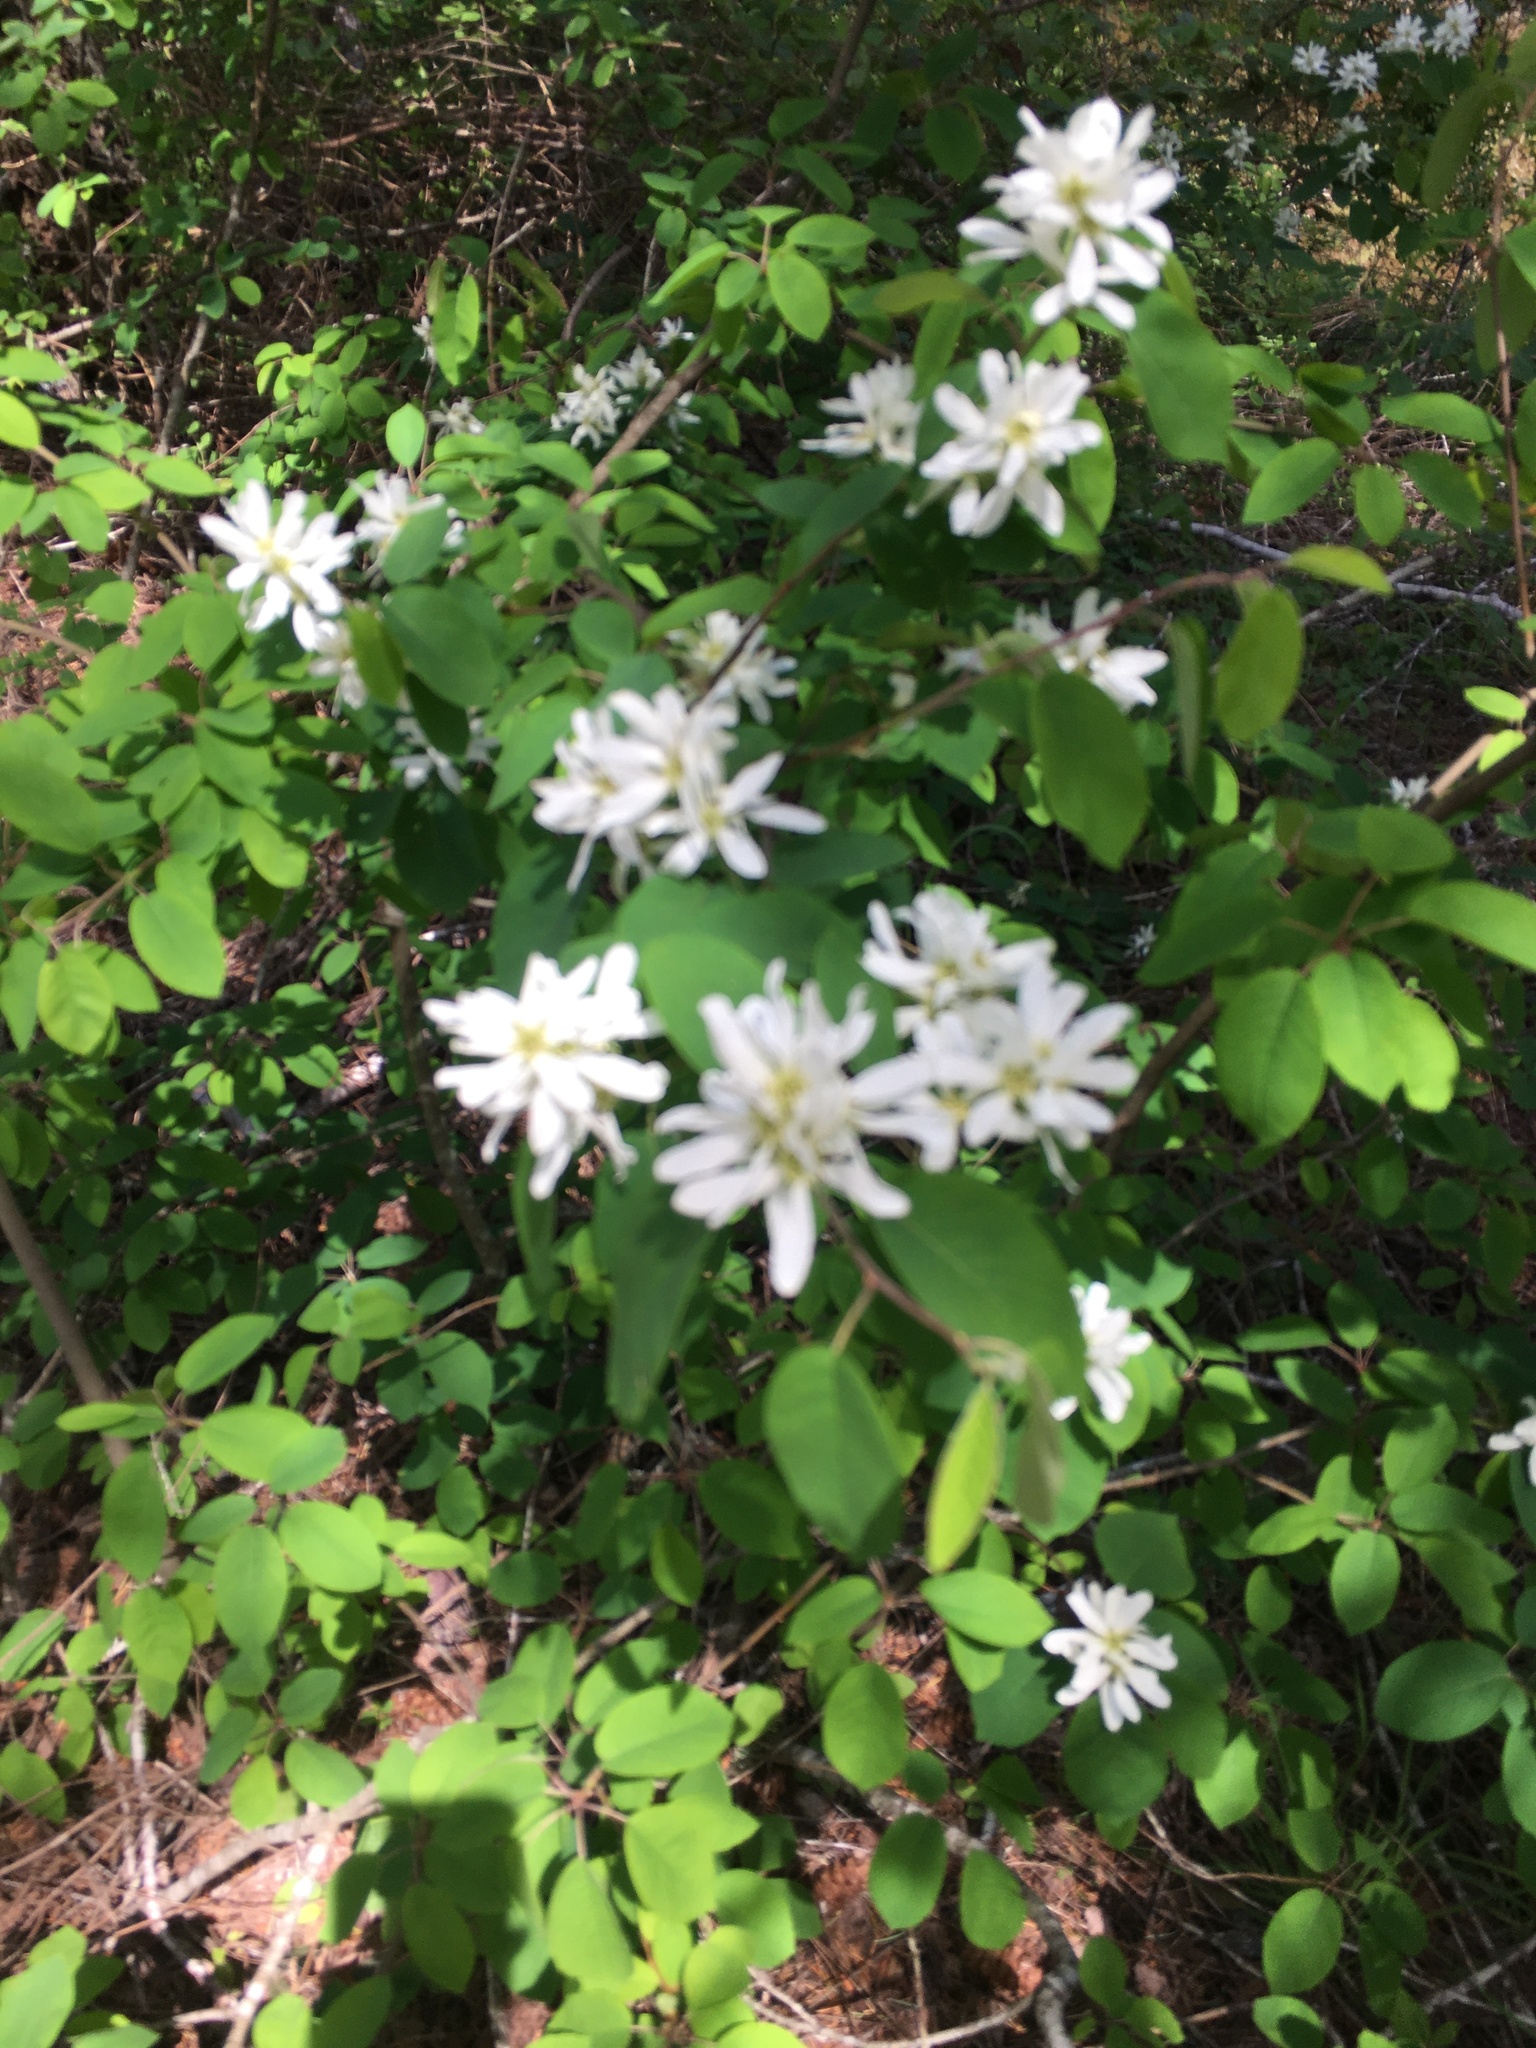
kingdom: Plantae
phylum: Tracheophyta
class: Magnoliopsida
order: Rosales
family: Rosaceae
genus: Amelanchier
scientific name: Amelanchier alnifolia
